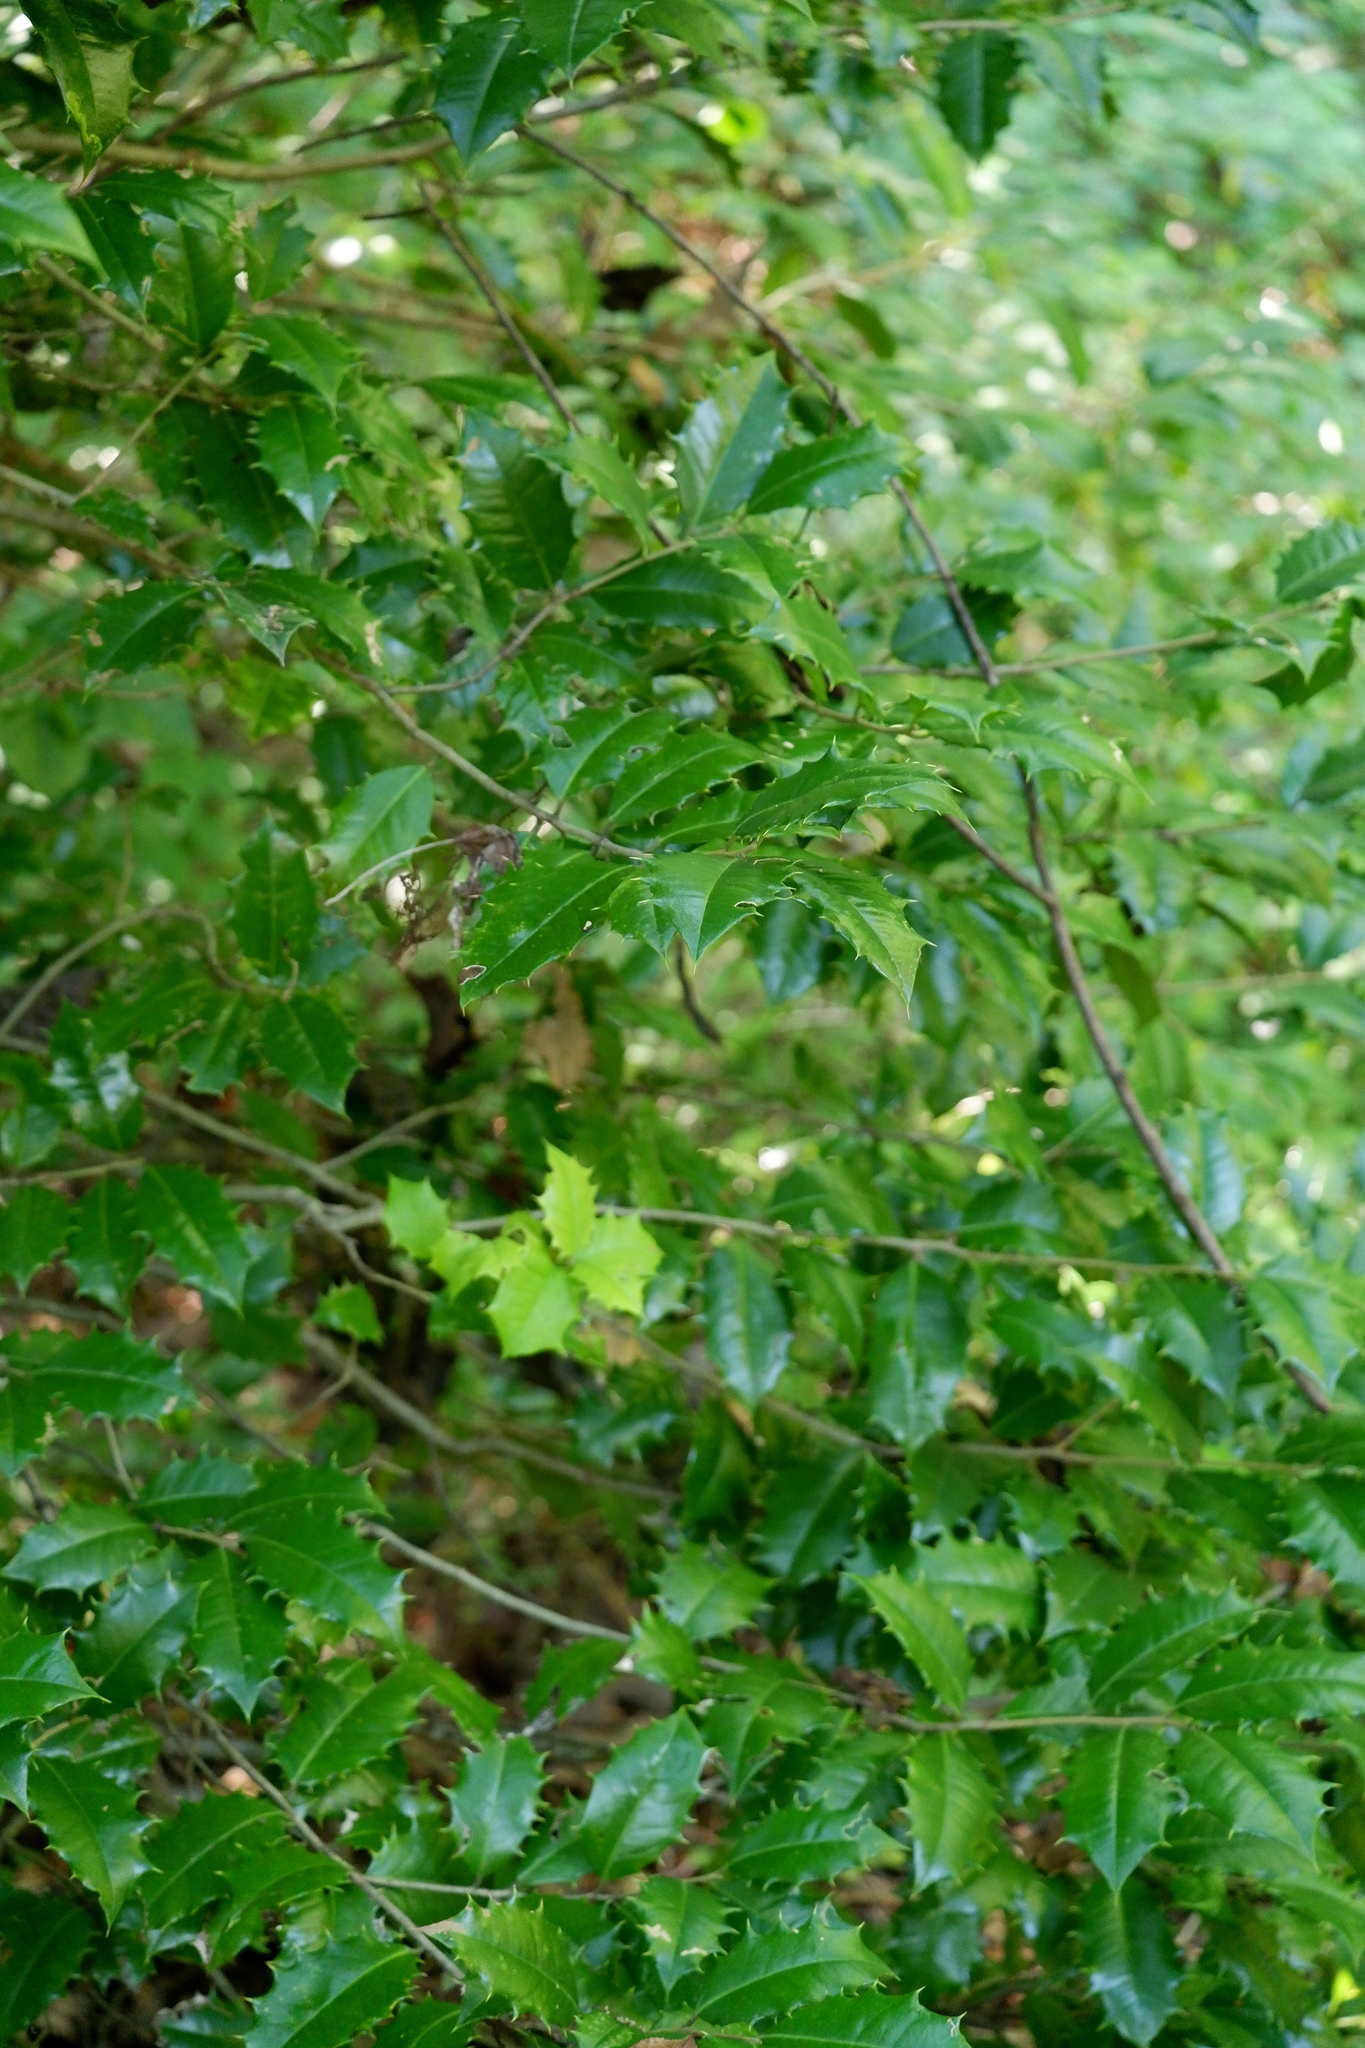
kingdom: Plantae
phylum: Tracheophyta
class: Magnoliopsida
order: Aquifoliales
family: Aquifoliaceae
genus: Ilex
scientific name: Ilex opaca
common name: American holly
